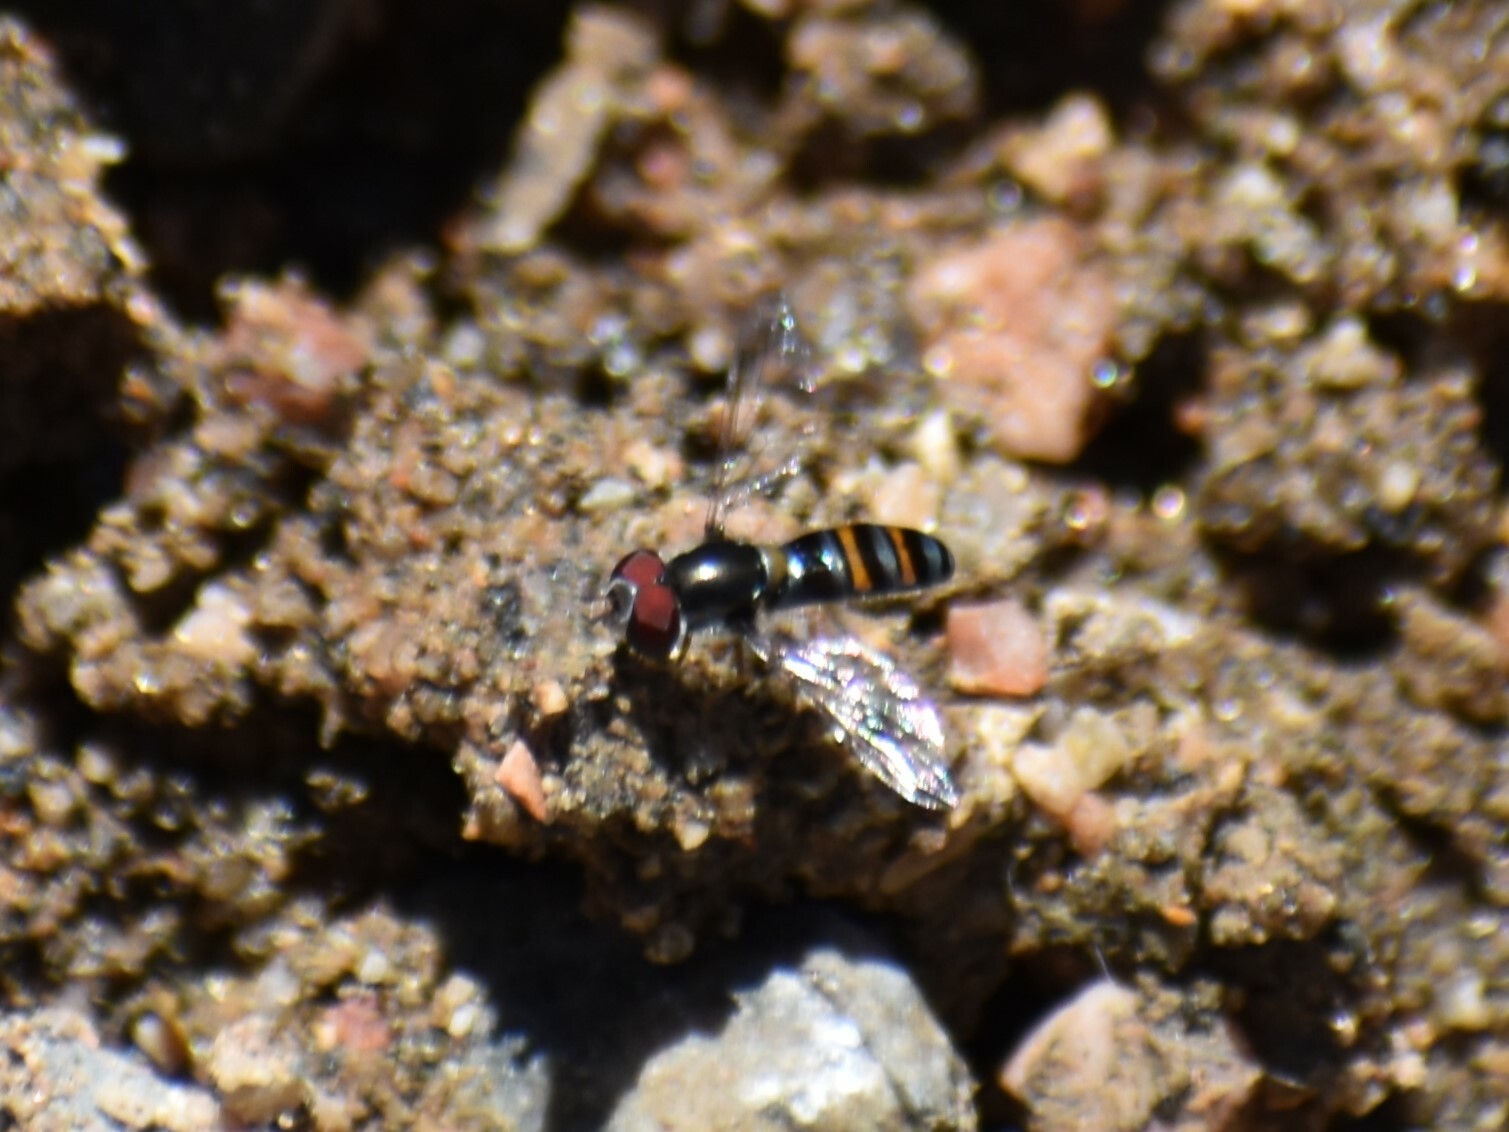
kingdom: Animalia
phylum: Arthropoda
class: Insecta
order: Diptera
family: Syrphidae
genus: Pseudoscaeva
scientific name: Pseudoscaeva diversifasciata
